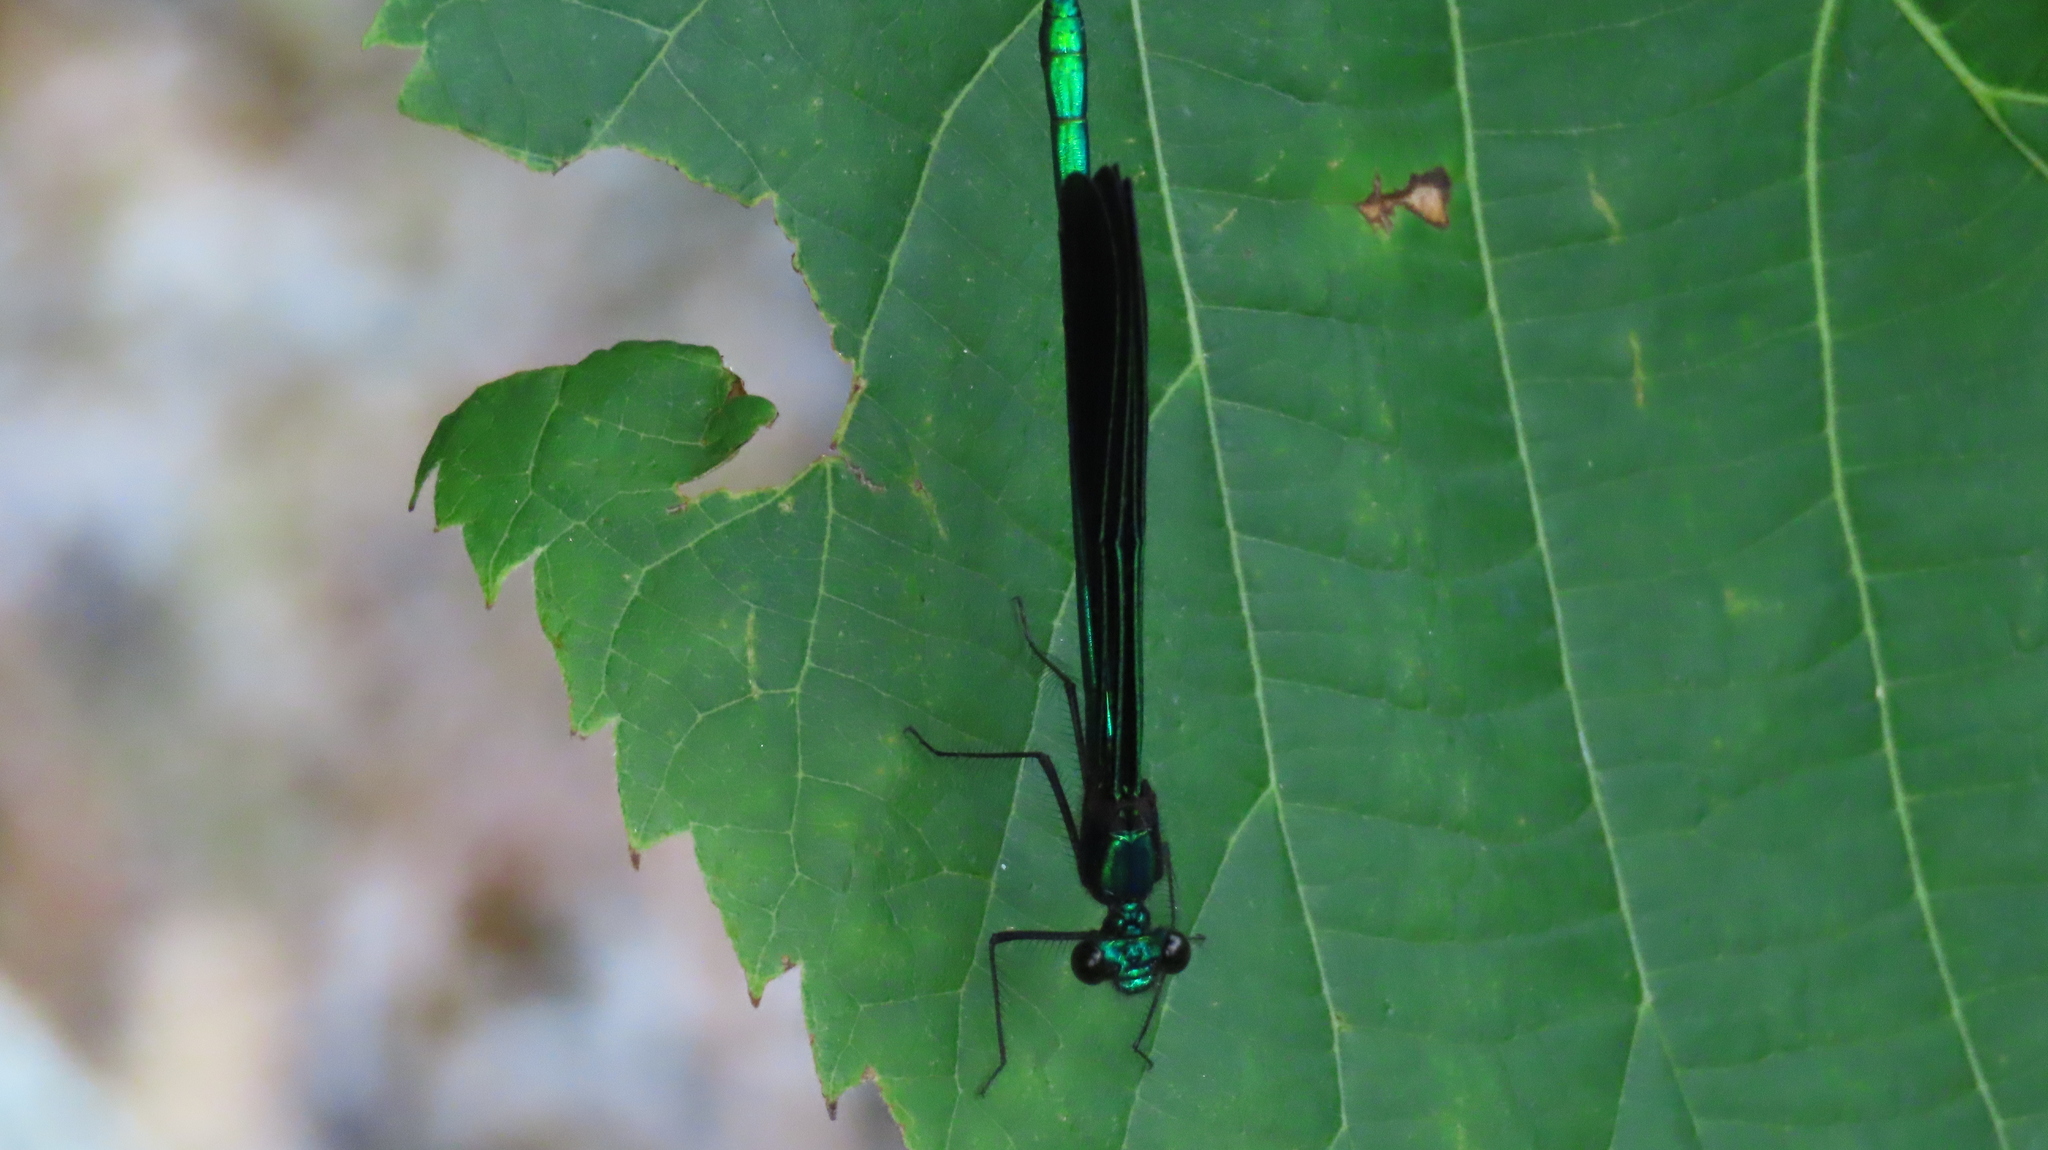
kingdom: Animalia
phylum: Arthropoda
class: Insecta
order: Odonata
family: Calopterygidae
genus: Calopteryx
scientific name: Calopteryx maculata
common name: Ebony jewelwing
